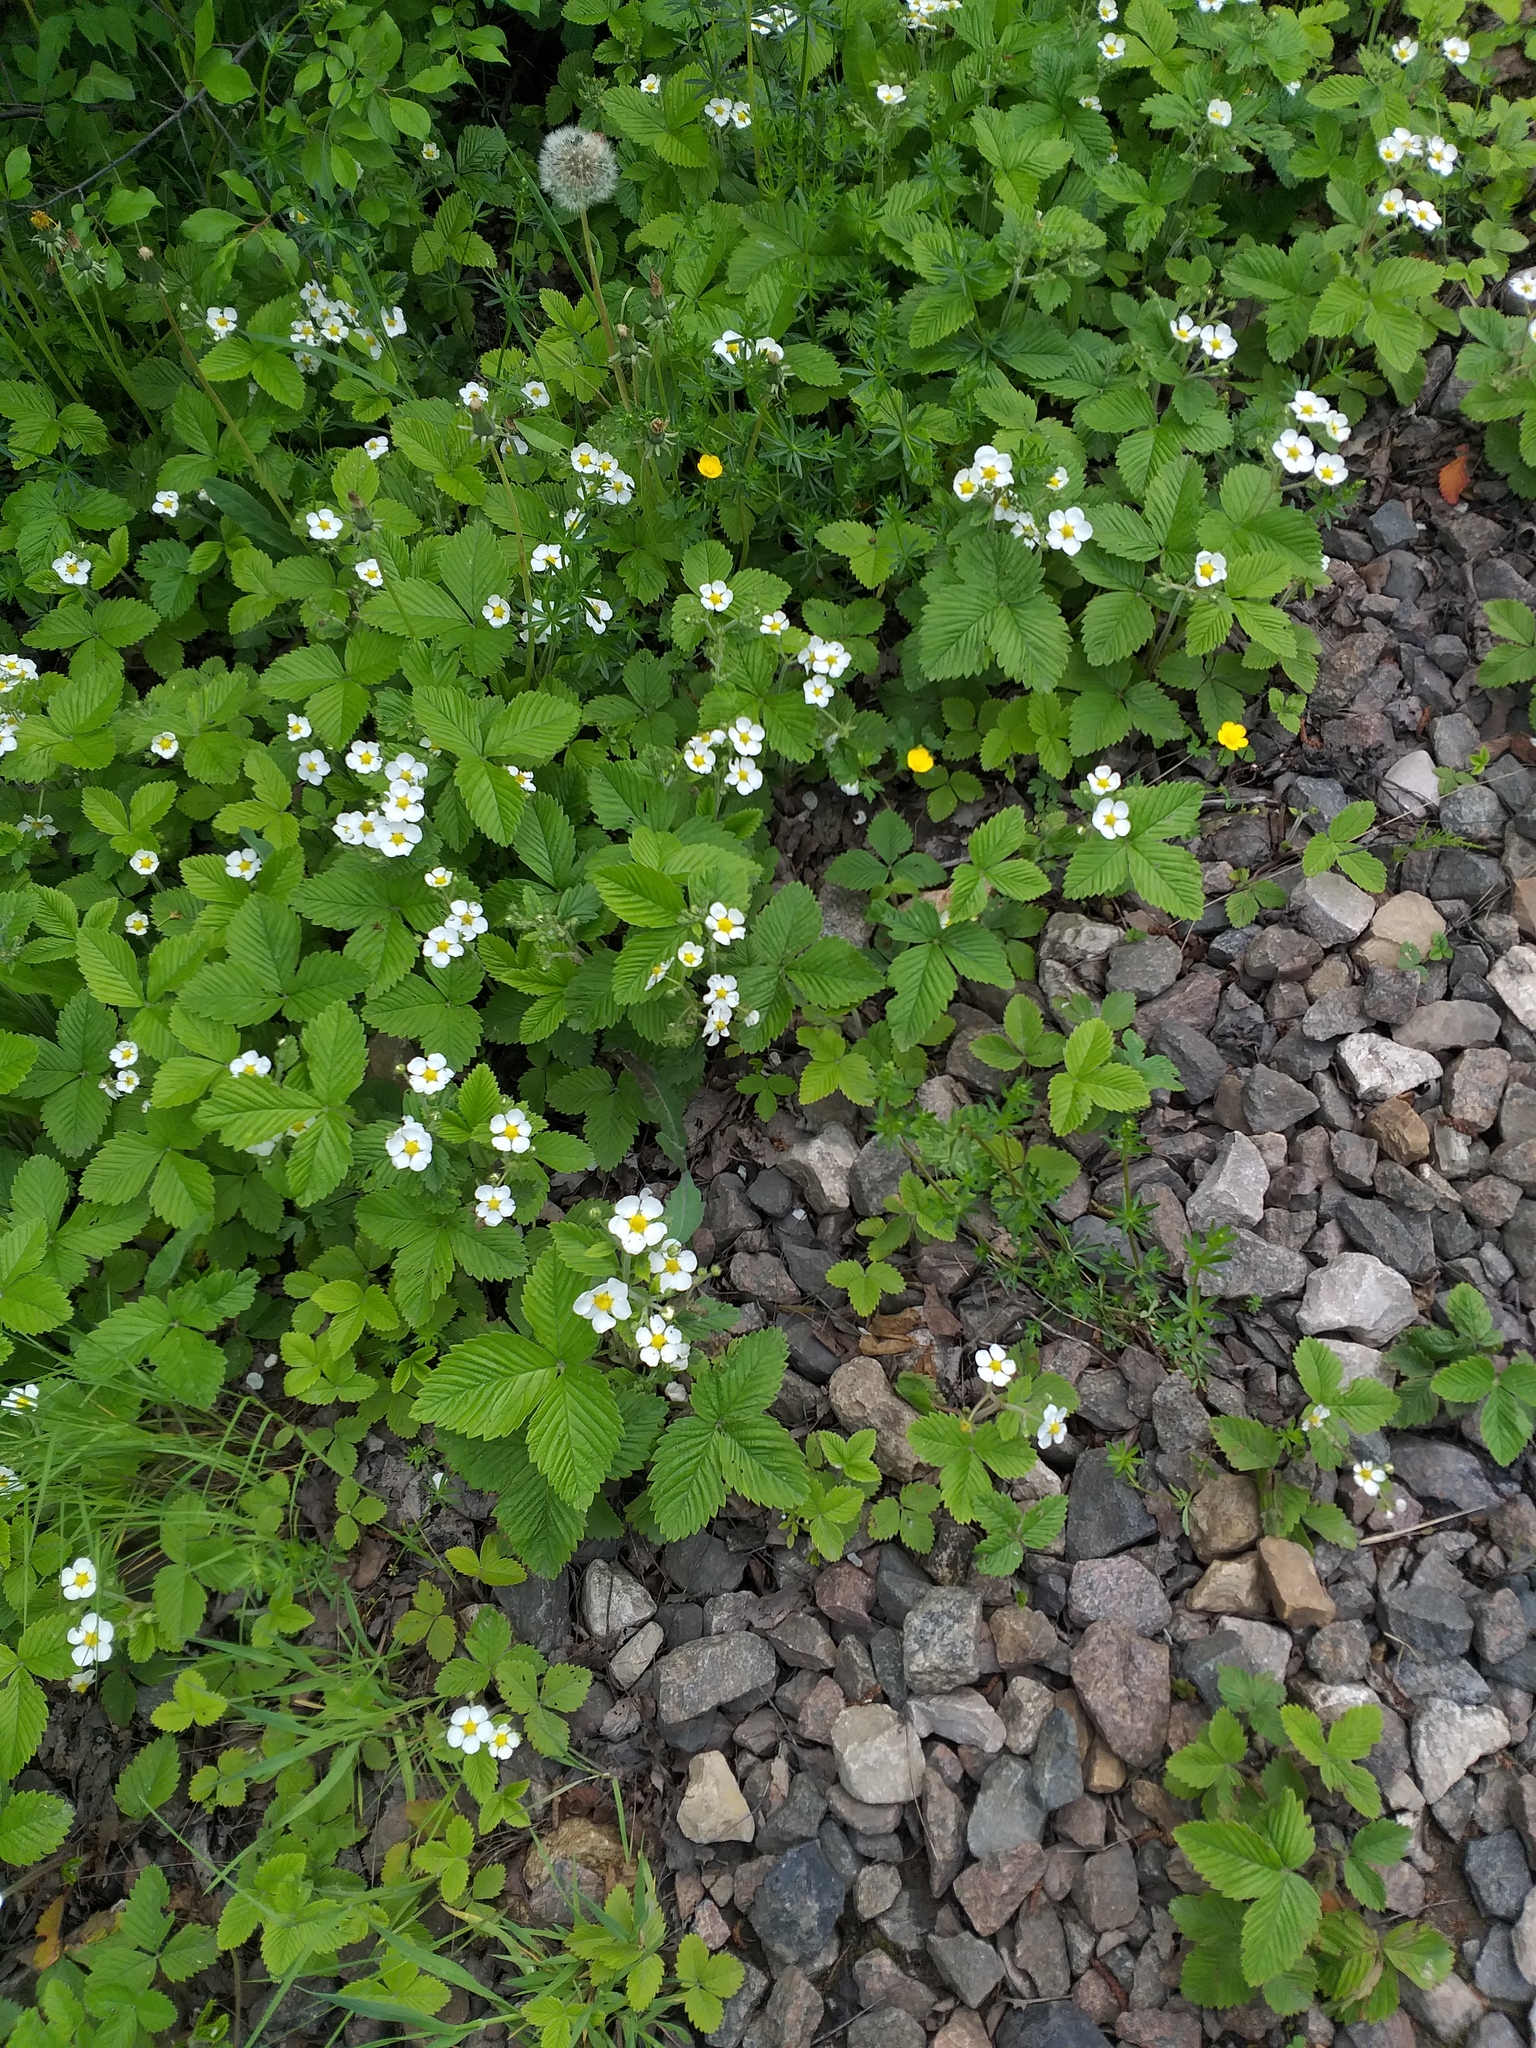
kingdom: Plantae
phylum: Tracheophyta
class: Magnoliopsida
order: Rosales
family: Rosaceae
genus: Fragaria
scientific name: Fragaria moschata
